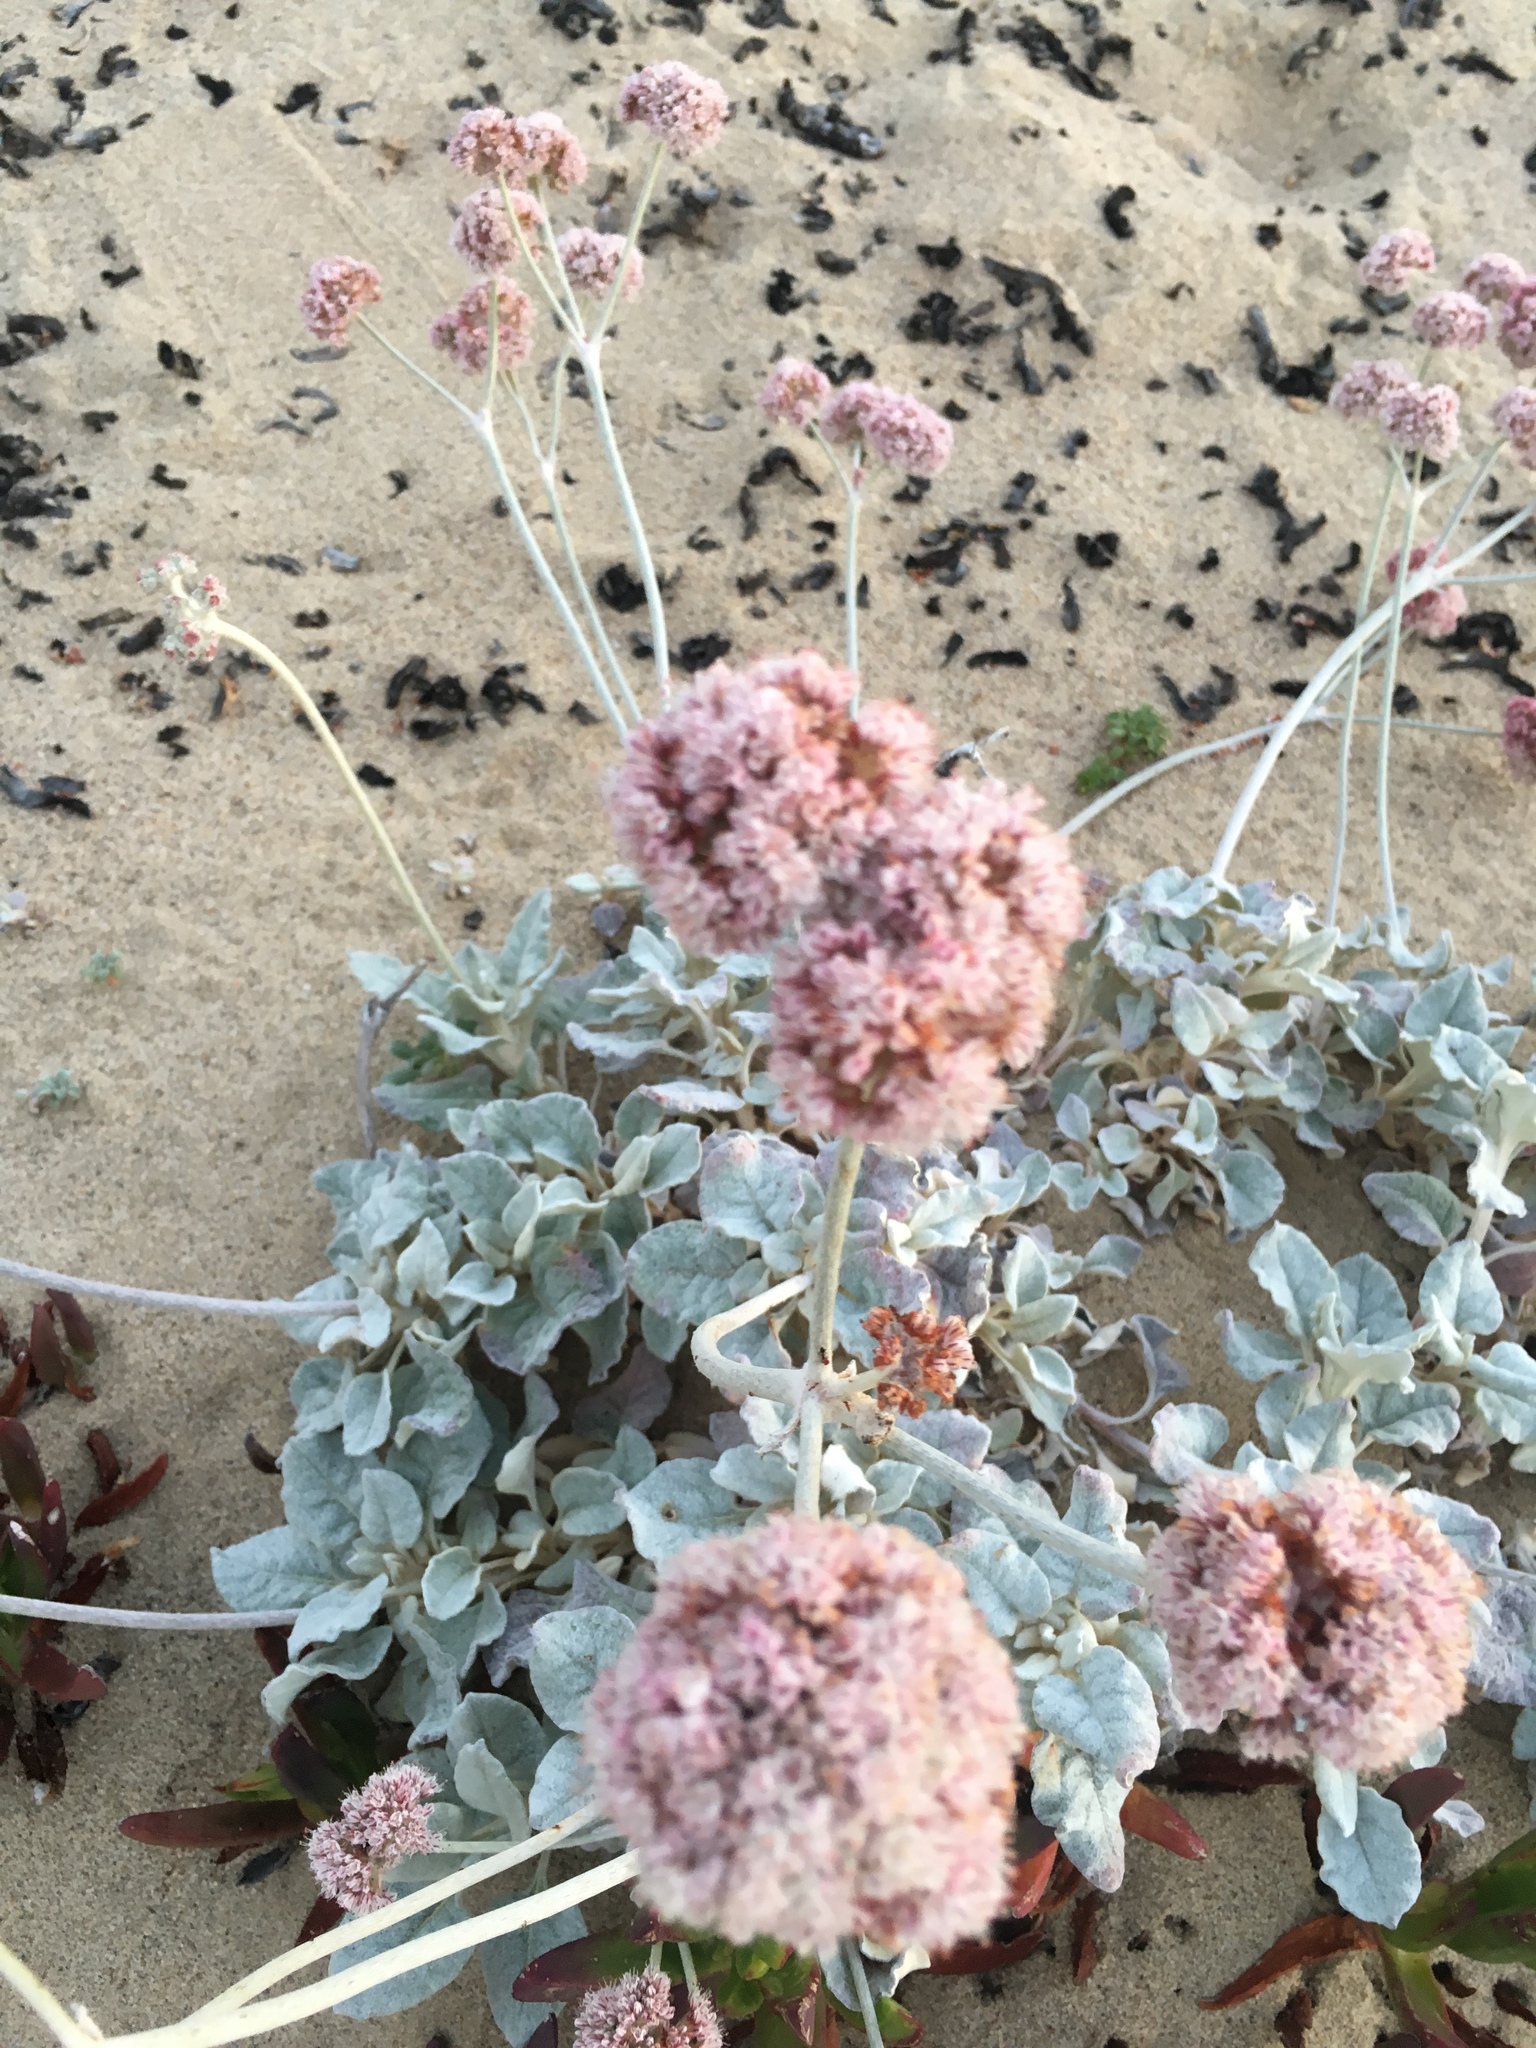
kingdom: Plantae
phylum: Tracheophyta
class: Magnoliopsida
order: Caryophyllales
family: Polygonaceae
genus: Eriogonum
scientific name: Eriogonum latifolium
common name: Seaside wild buckwheat
